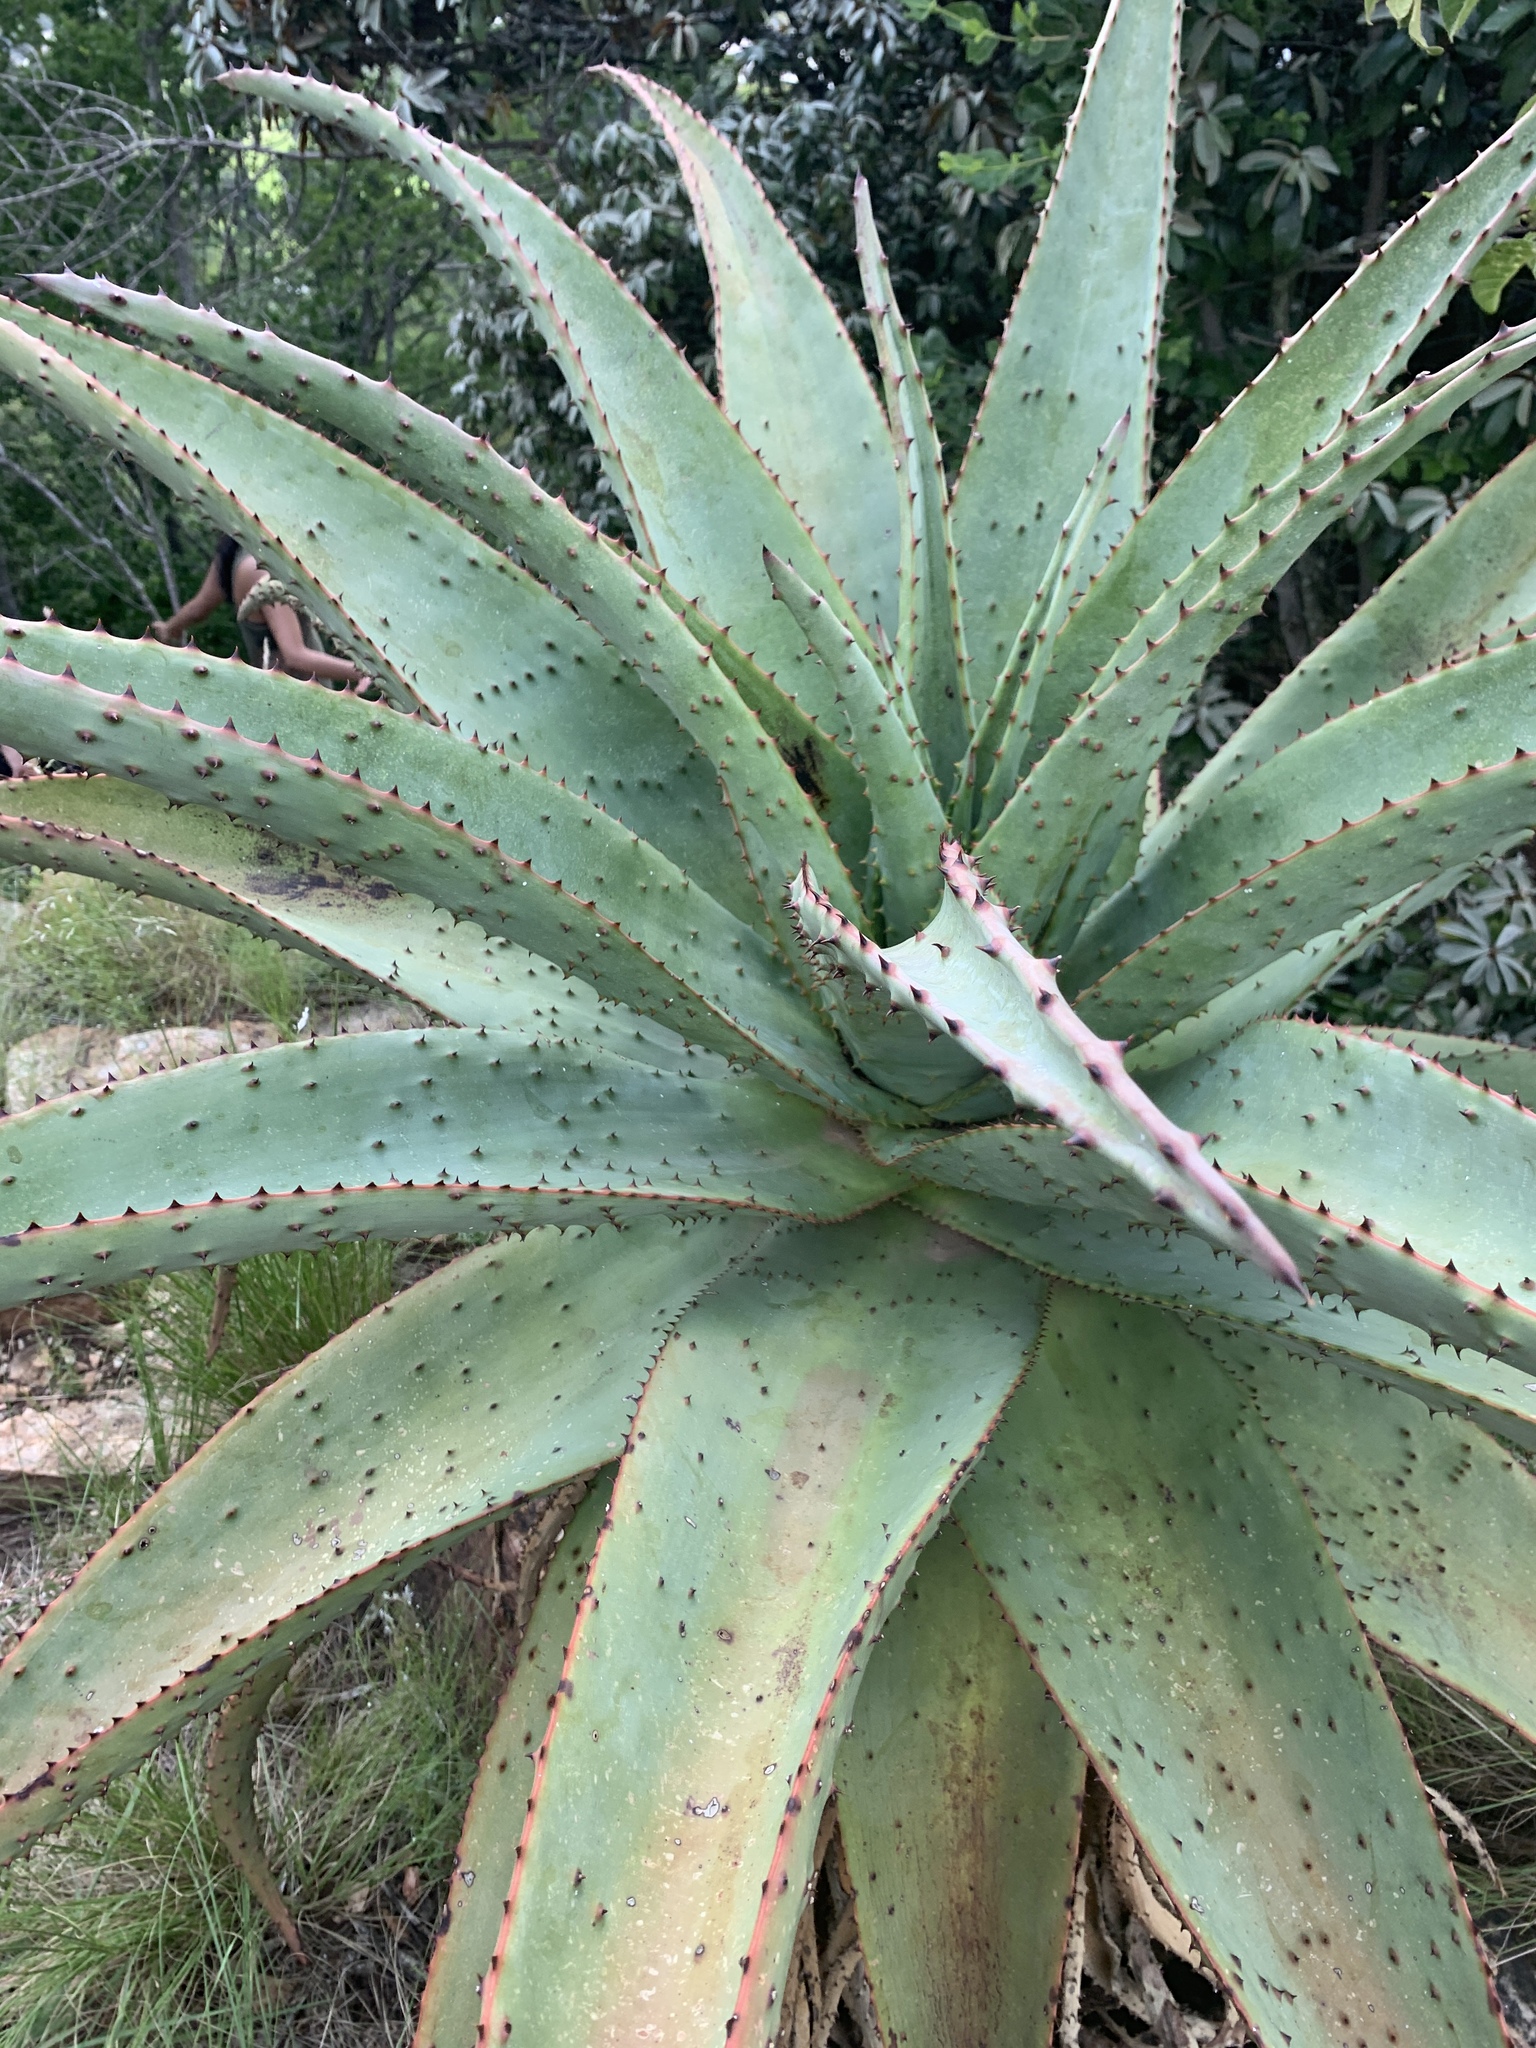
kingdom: Plantae
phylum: Tracheophyta
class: Liliopsida
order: Asparagales
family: Asphodelaceae
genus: Aloe
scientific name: Aloe marlothii
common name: Flat-flowered aloe
